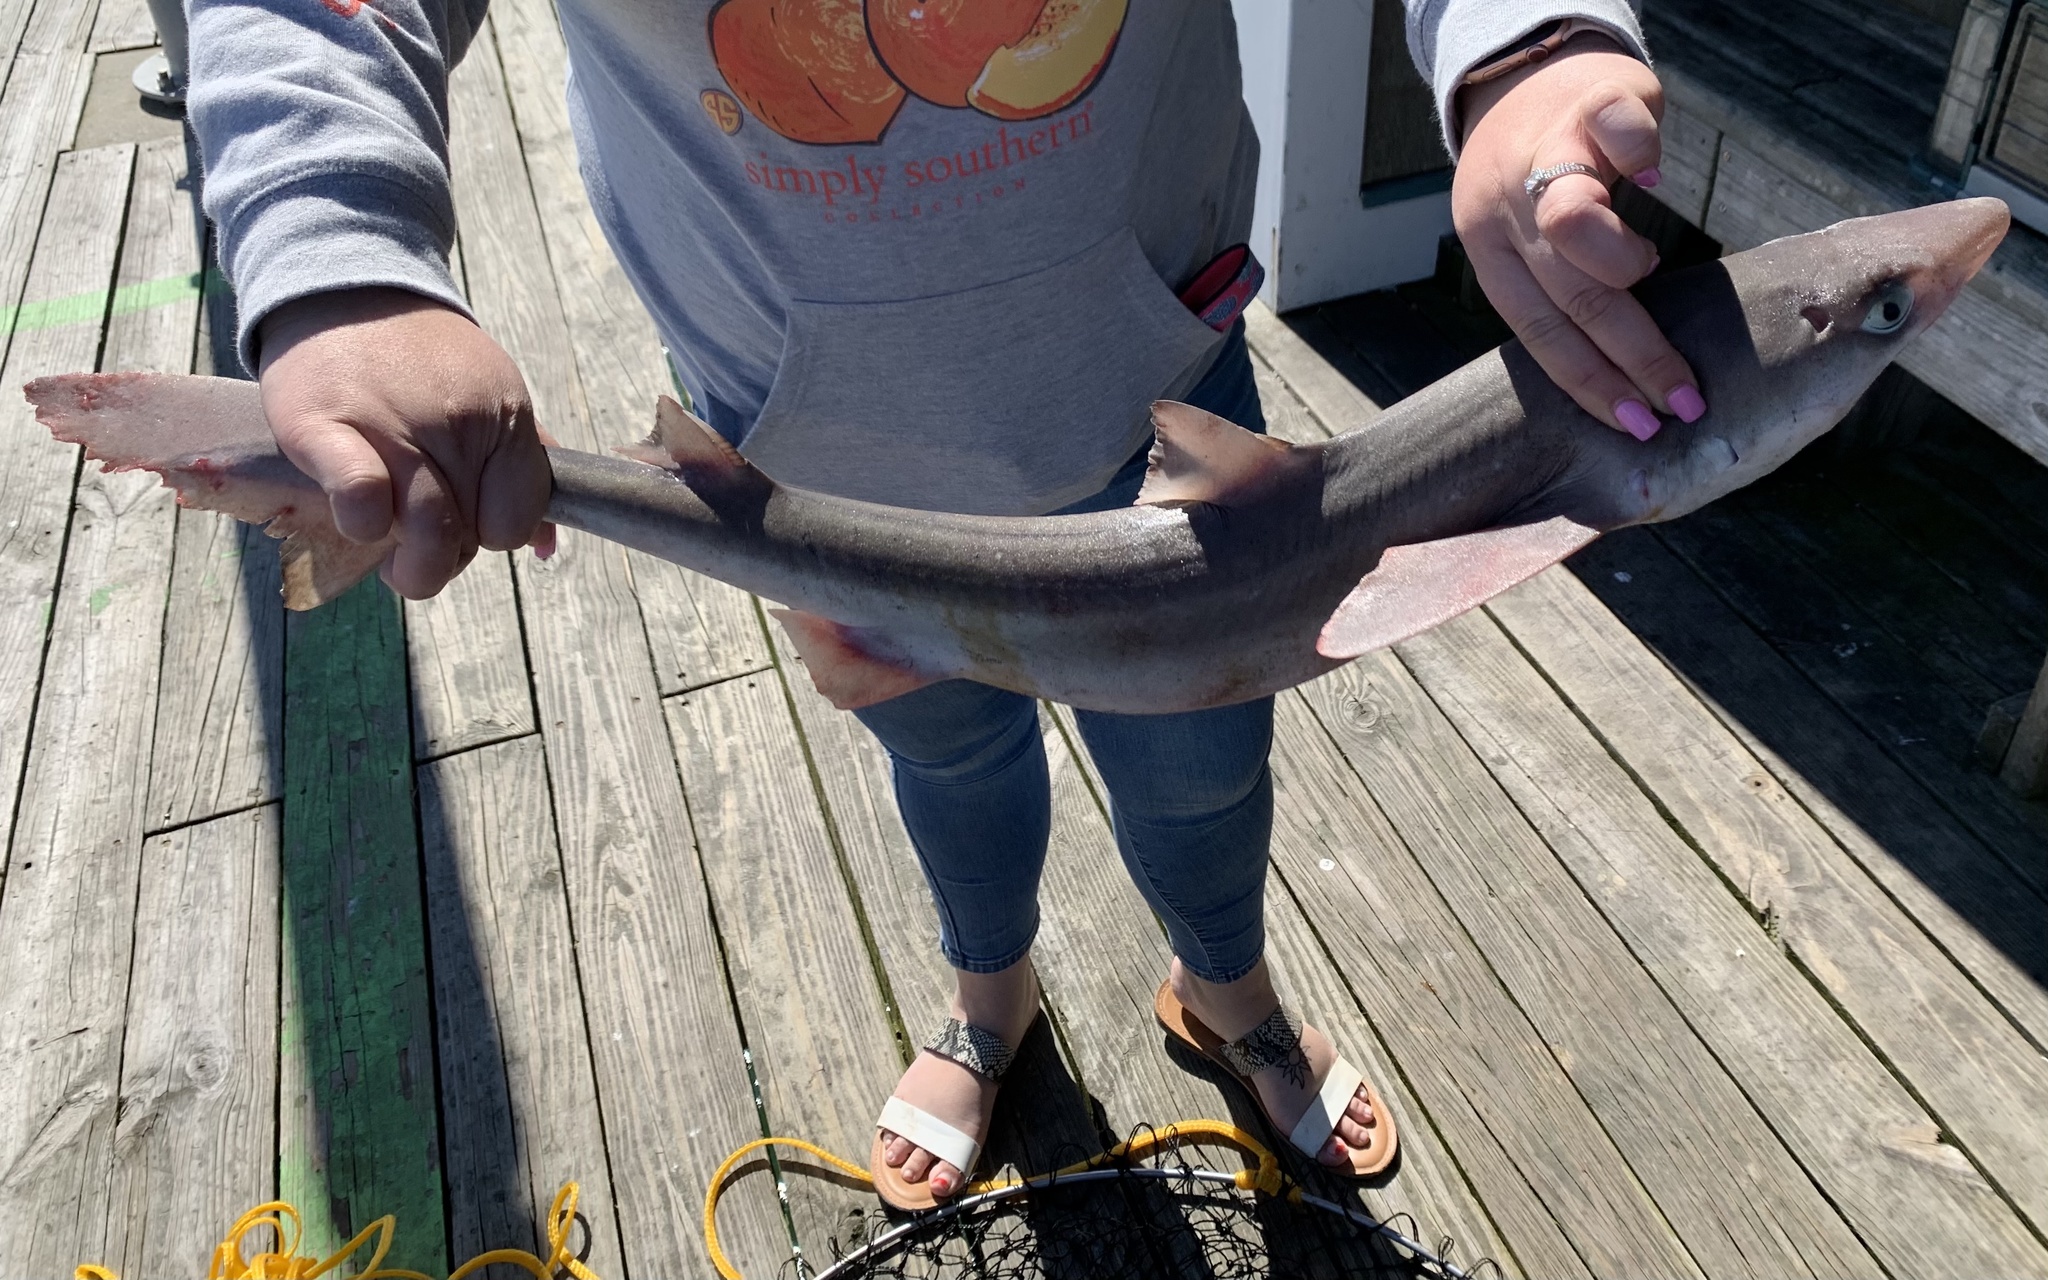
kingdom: Animalia
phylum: Chordata
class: Elasmobranchii
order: Squaliformes
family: Squalidae
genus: Squalus
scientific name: Squalus acanthias
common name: Spurdog
